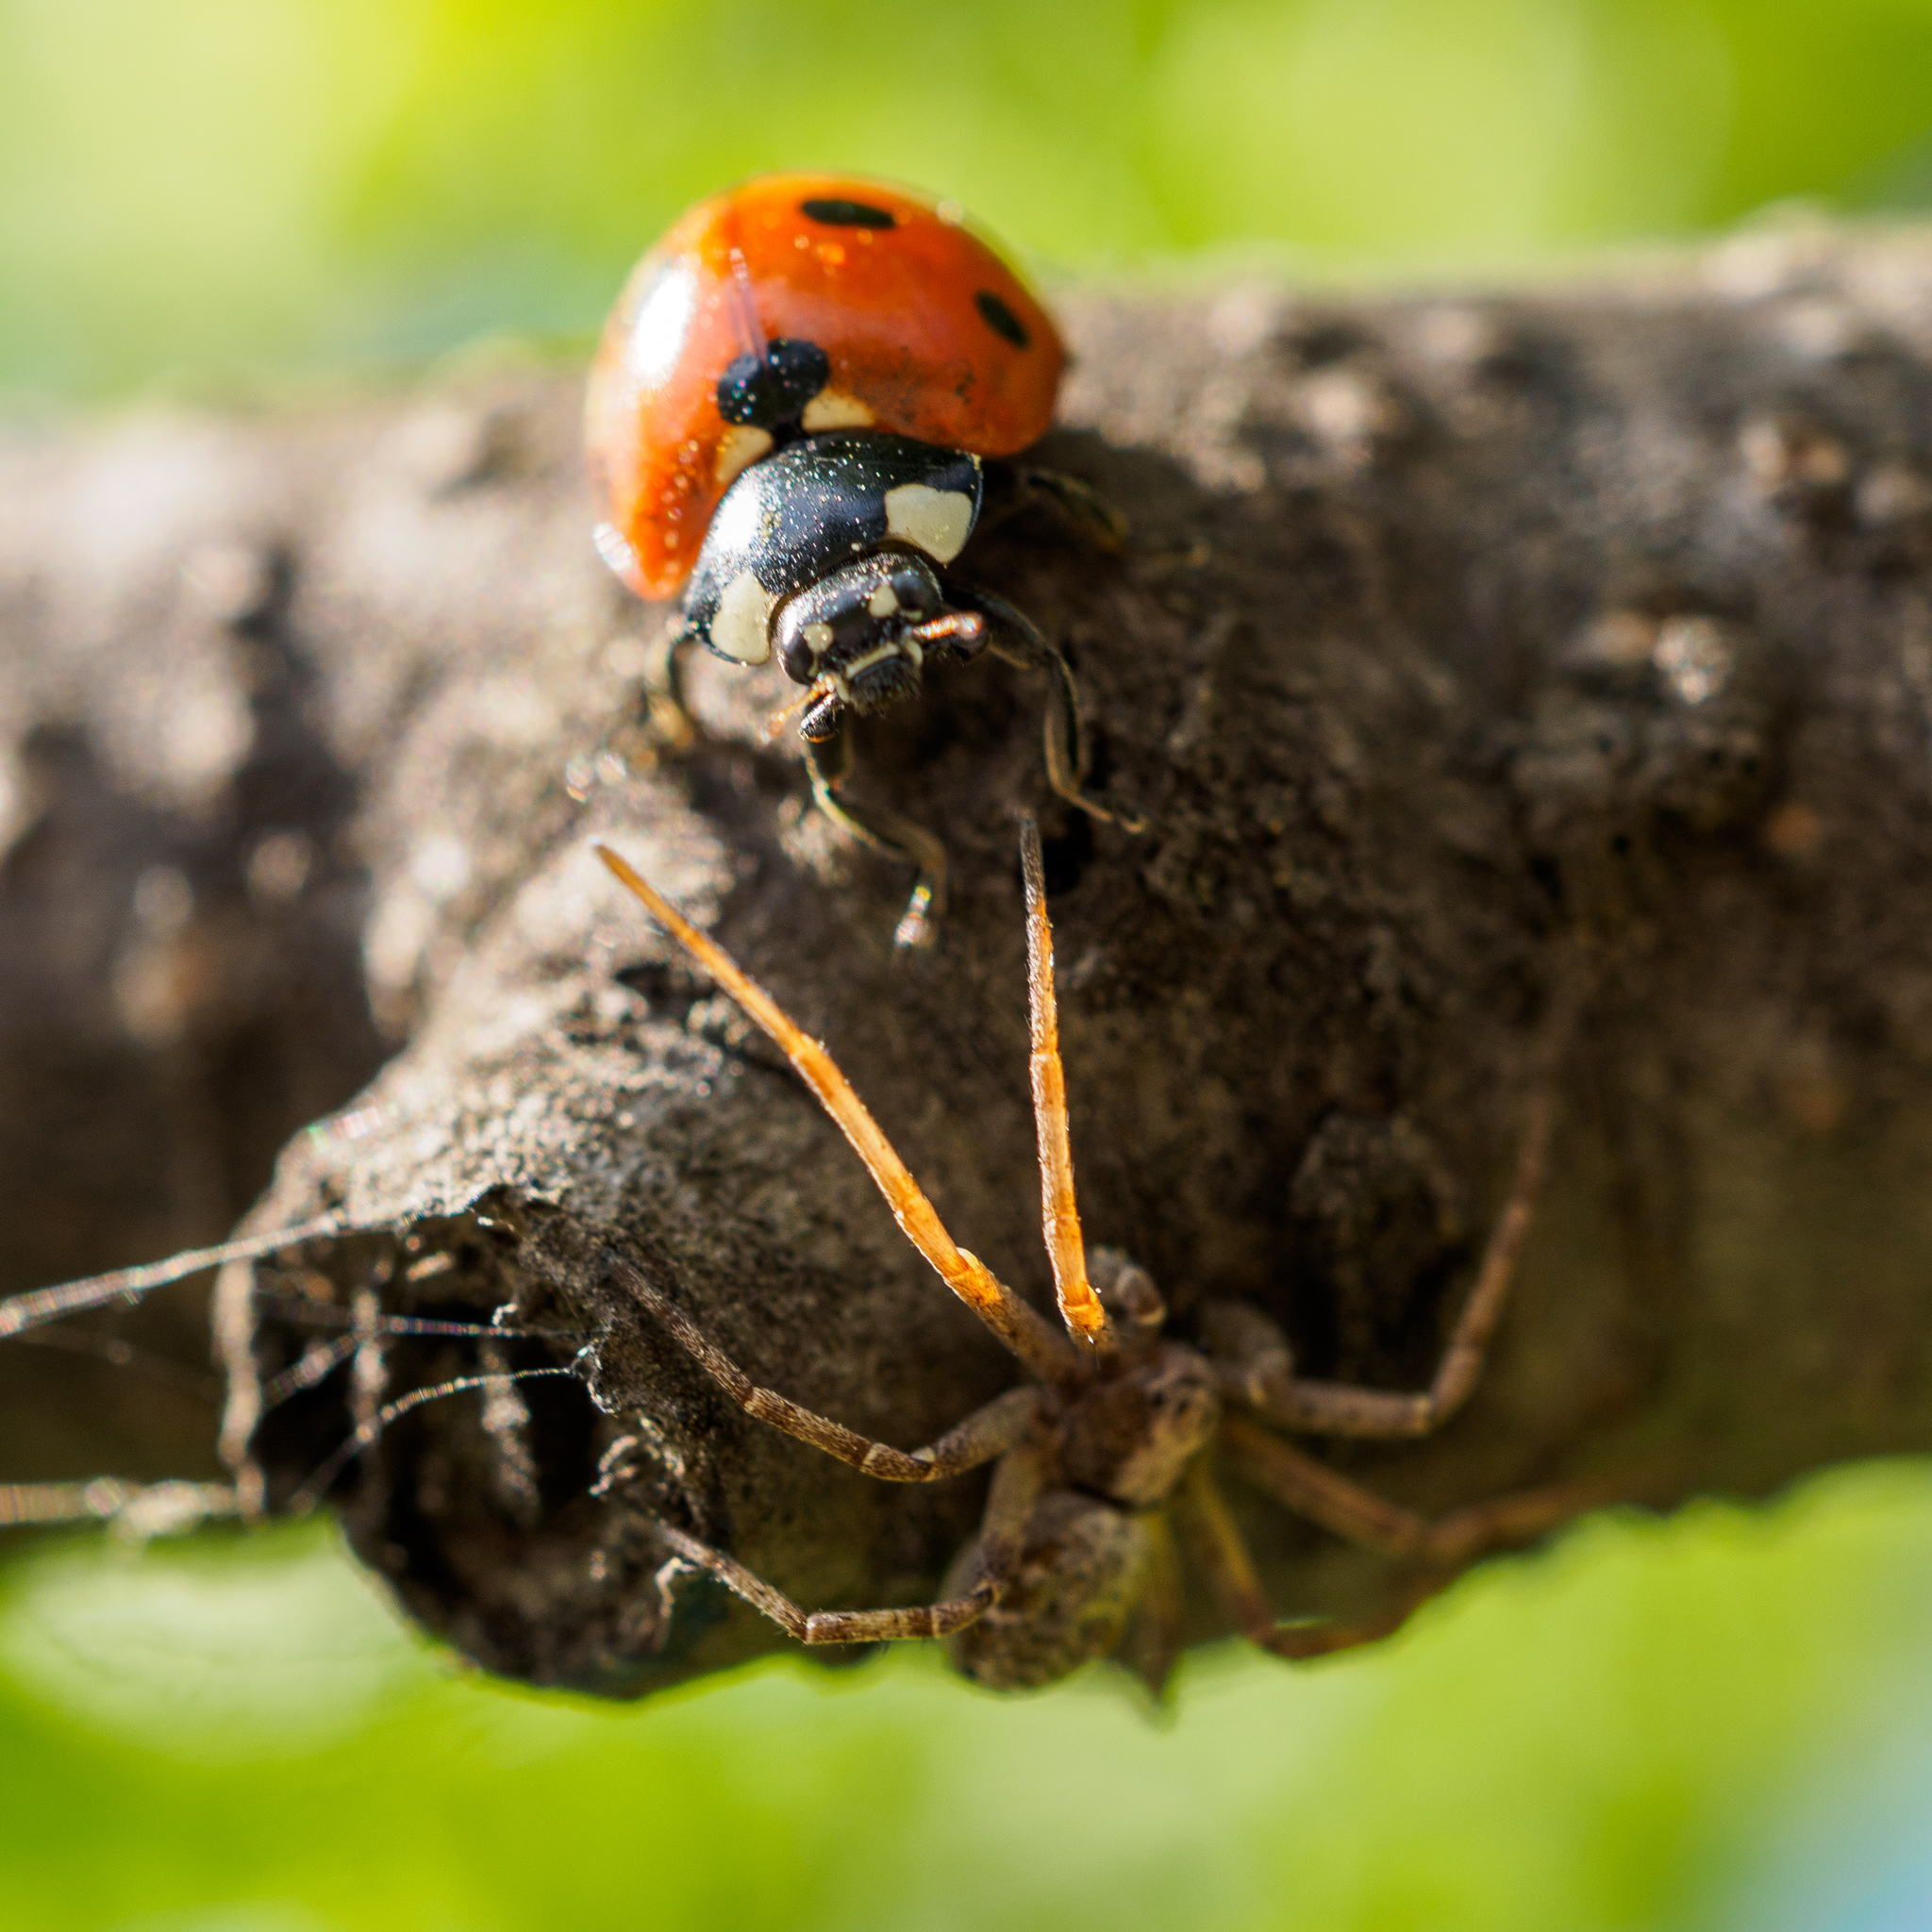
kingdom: Animalia
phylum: Arthropoda
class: Insecta
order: Coleoptera
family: Coccinellidae
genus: Coccinella
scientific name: Coccinella septempunctata
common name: Sevenspotted lady beetle
